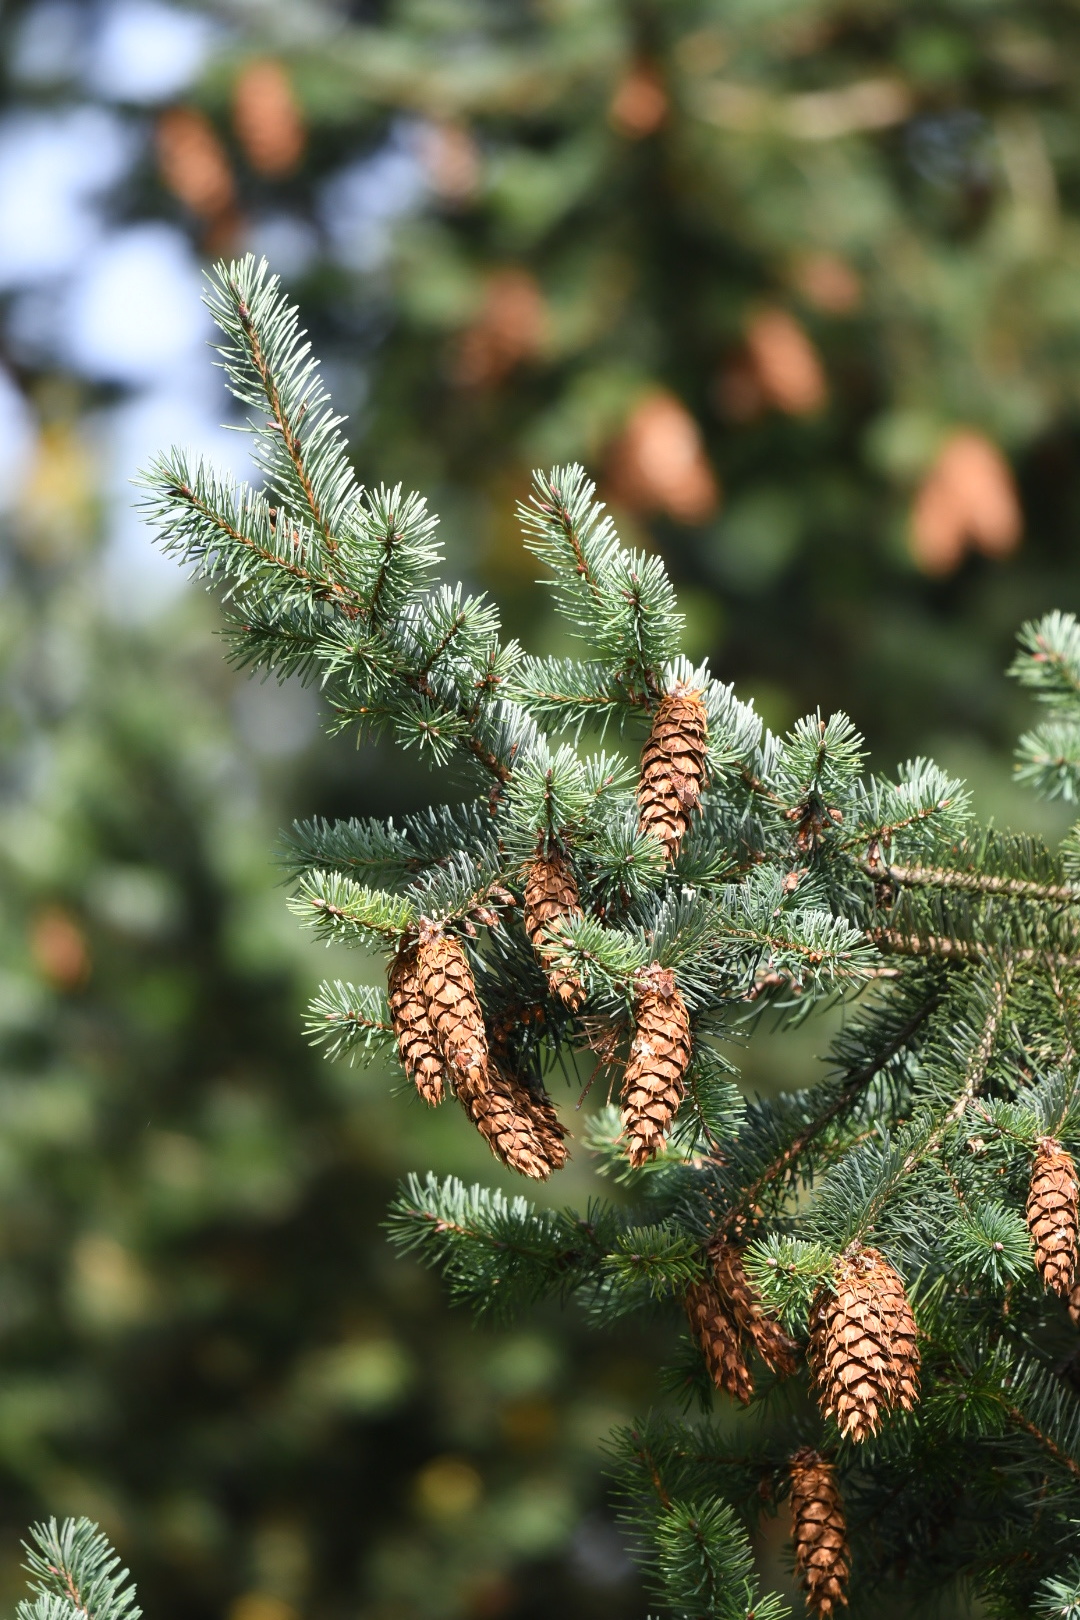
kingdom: Plantae
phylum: Tracheophyta
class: Pinopsida
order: Pinales
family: Pinaceae
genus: Pseudotsuga
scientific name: Pseudotsuga menziesii
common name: Douglas fir
